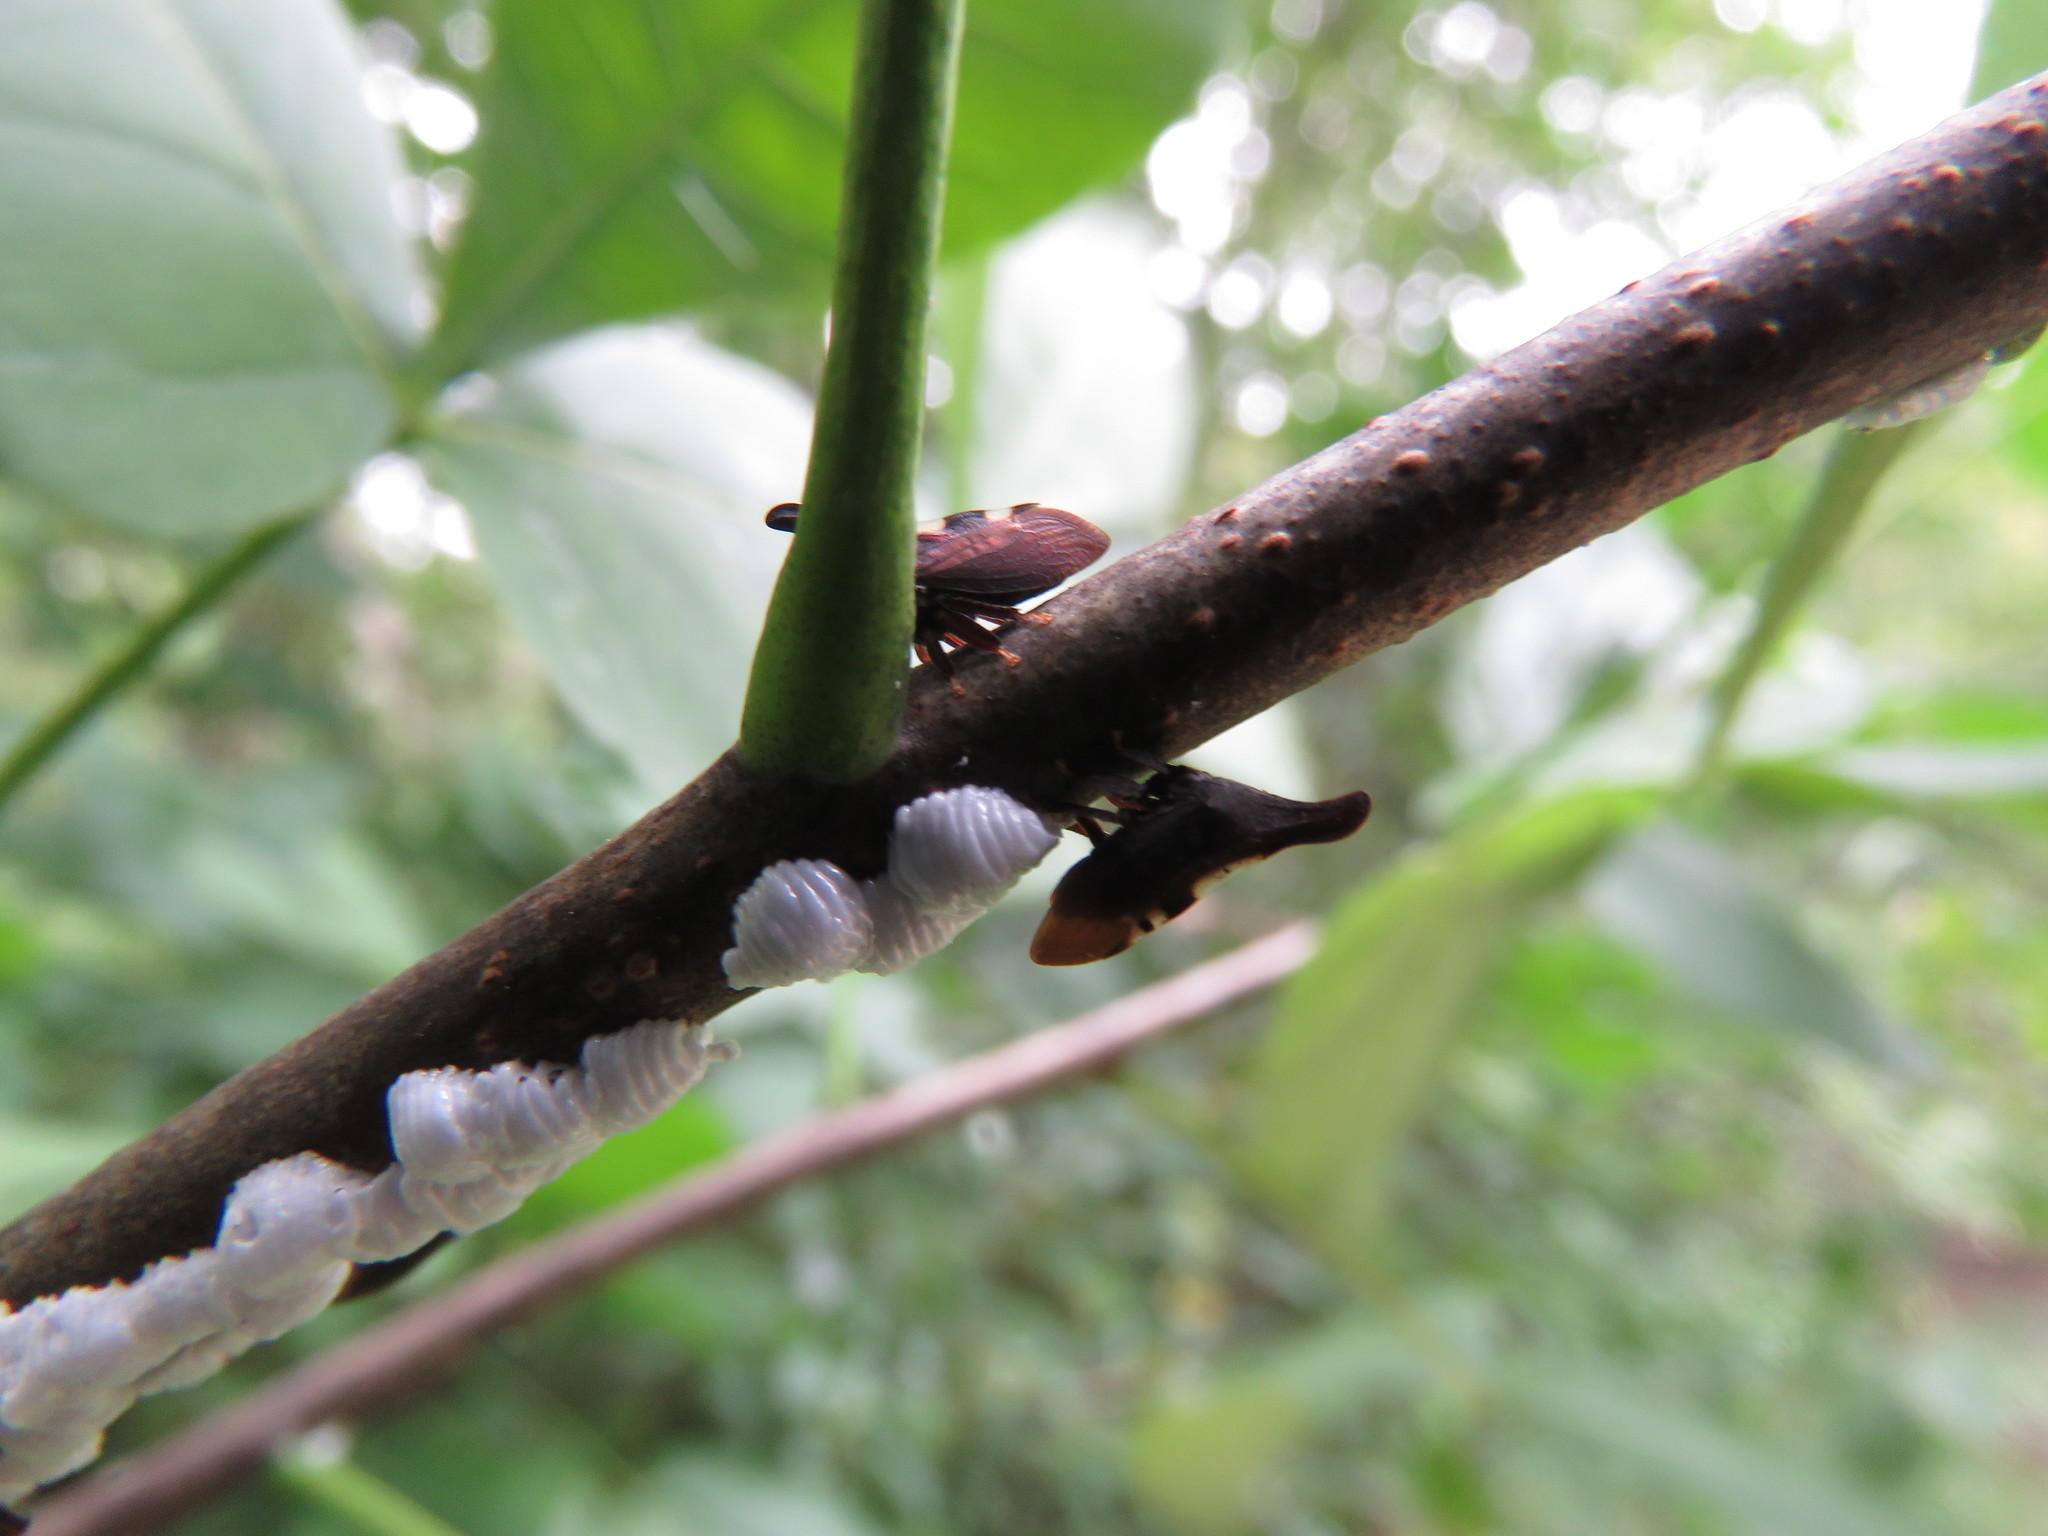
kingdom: Animalia
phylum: Arthropoda
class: Insecta
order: Hemiptera
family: Membracidae
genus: Enchenopa
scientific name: Enchenopa
